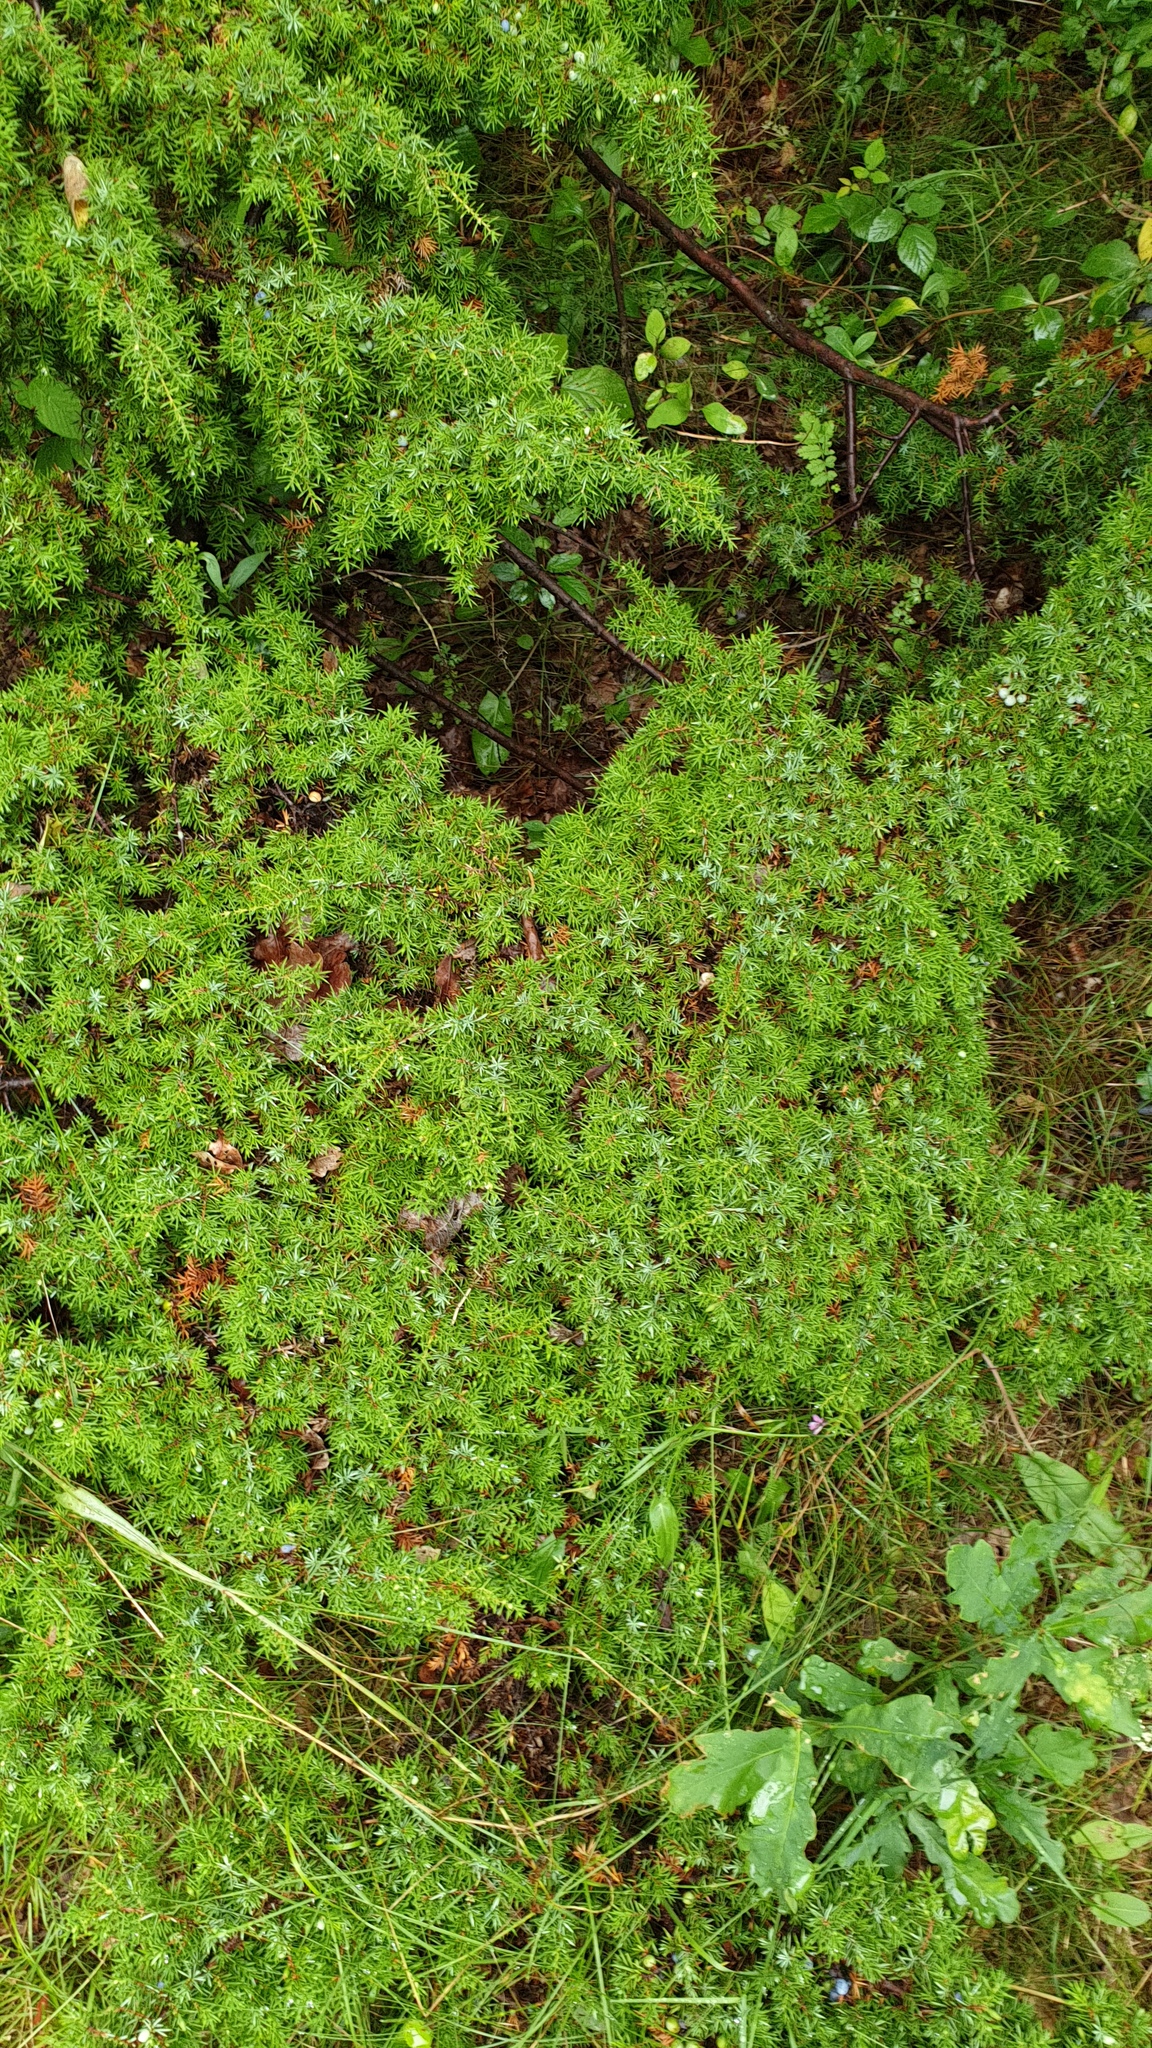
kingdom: Plantae
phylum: Tracheophyta
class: Pinopsida
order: Pinales
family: Cupressaceae
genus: Juniperus
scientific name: Juniperus communis
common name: Common juniper
